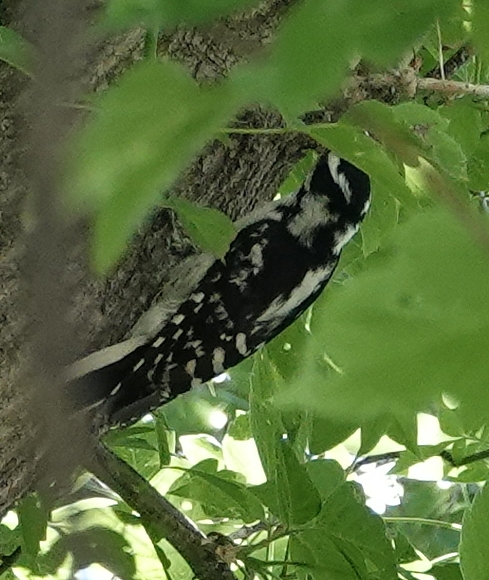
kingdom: Animalia
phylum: Chordata
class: Aves
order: Piciformes
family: Picidae
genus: Leuconotopicus
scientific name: Leuconotopicus villosus
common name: Hairy woodpecker
